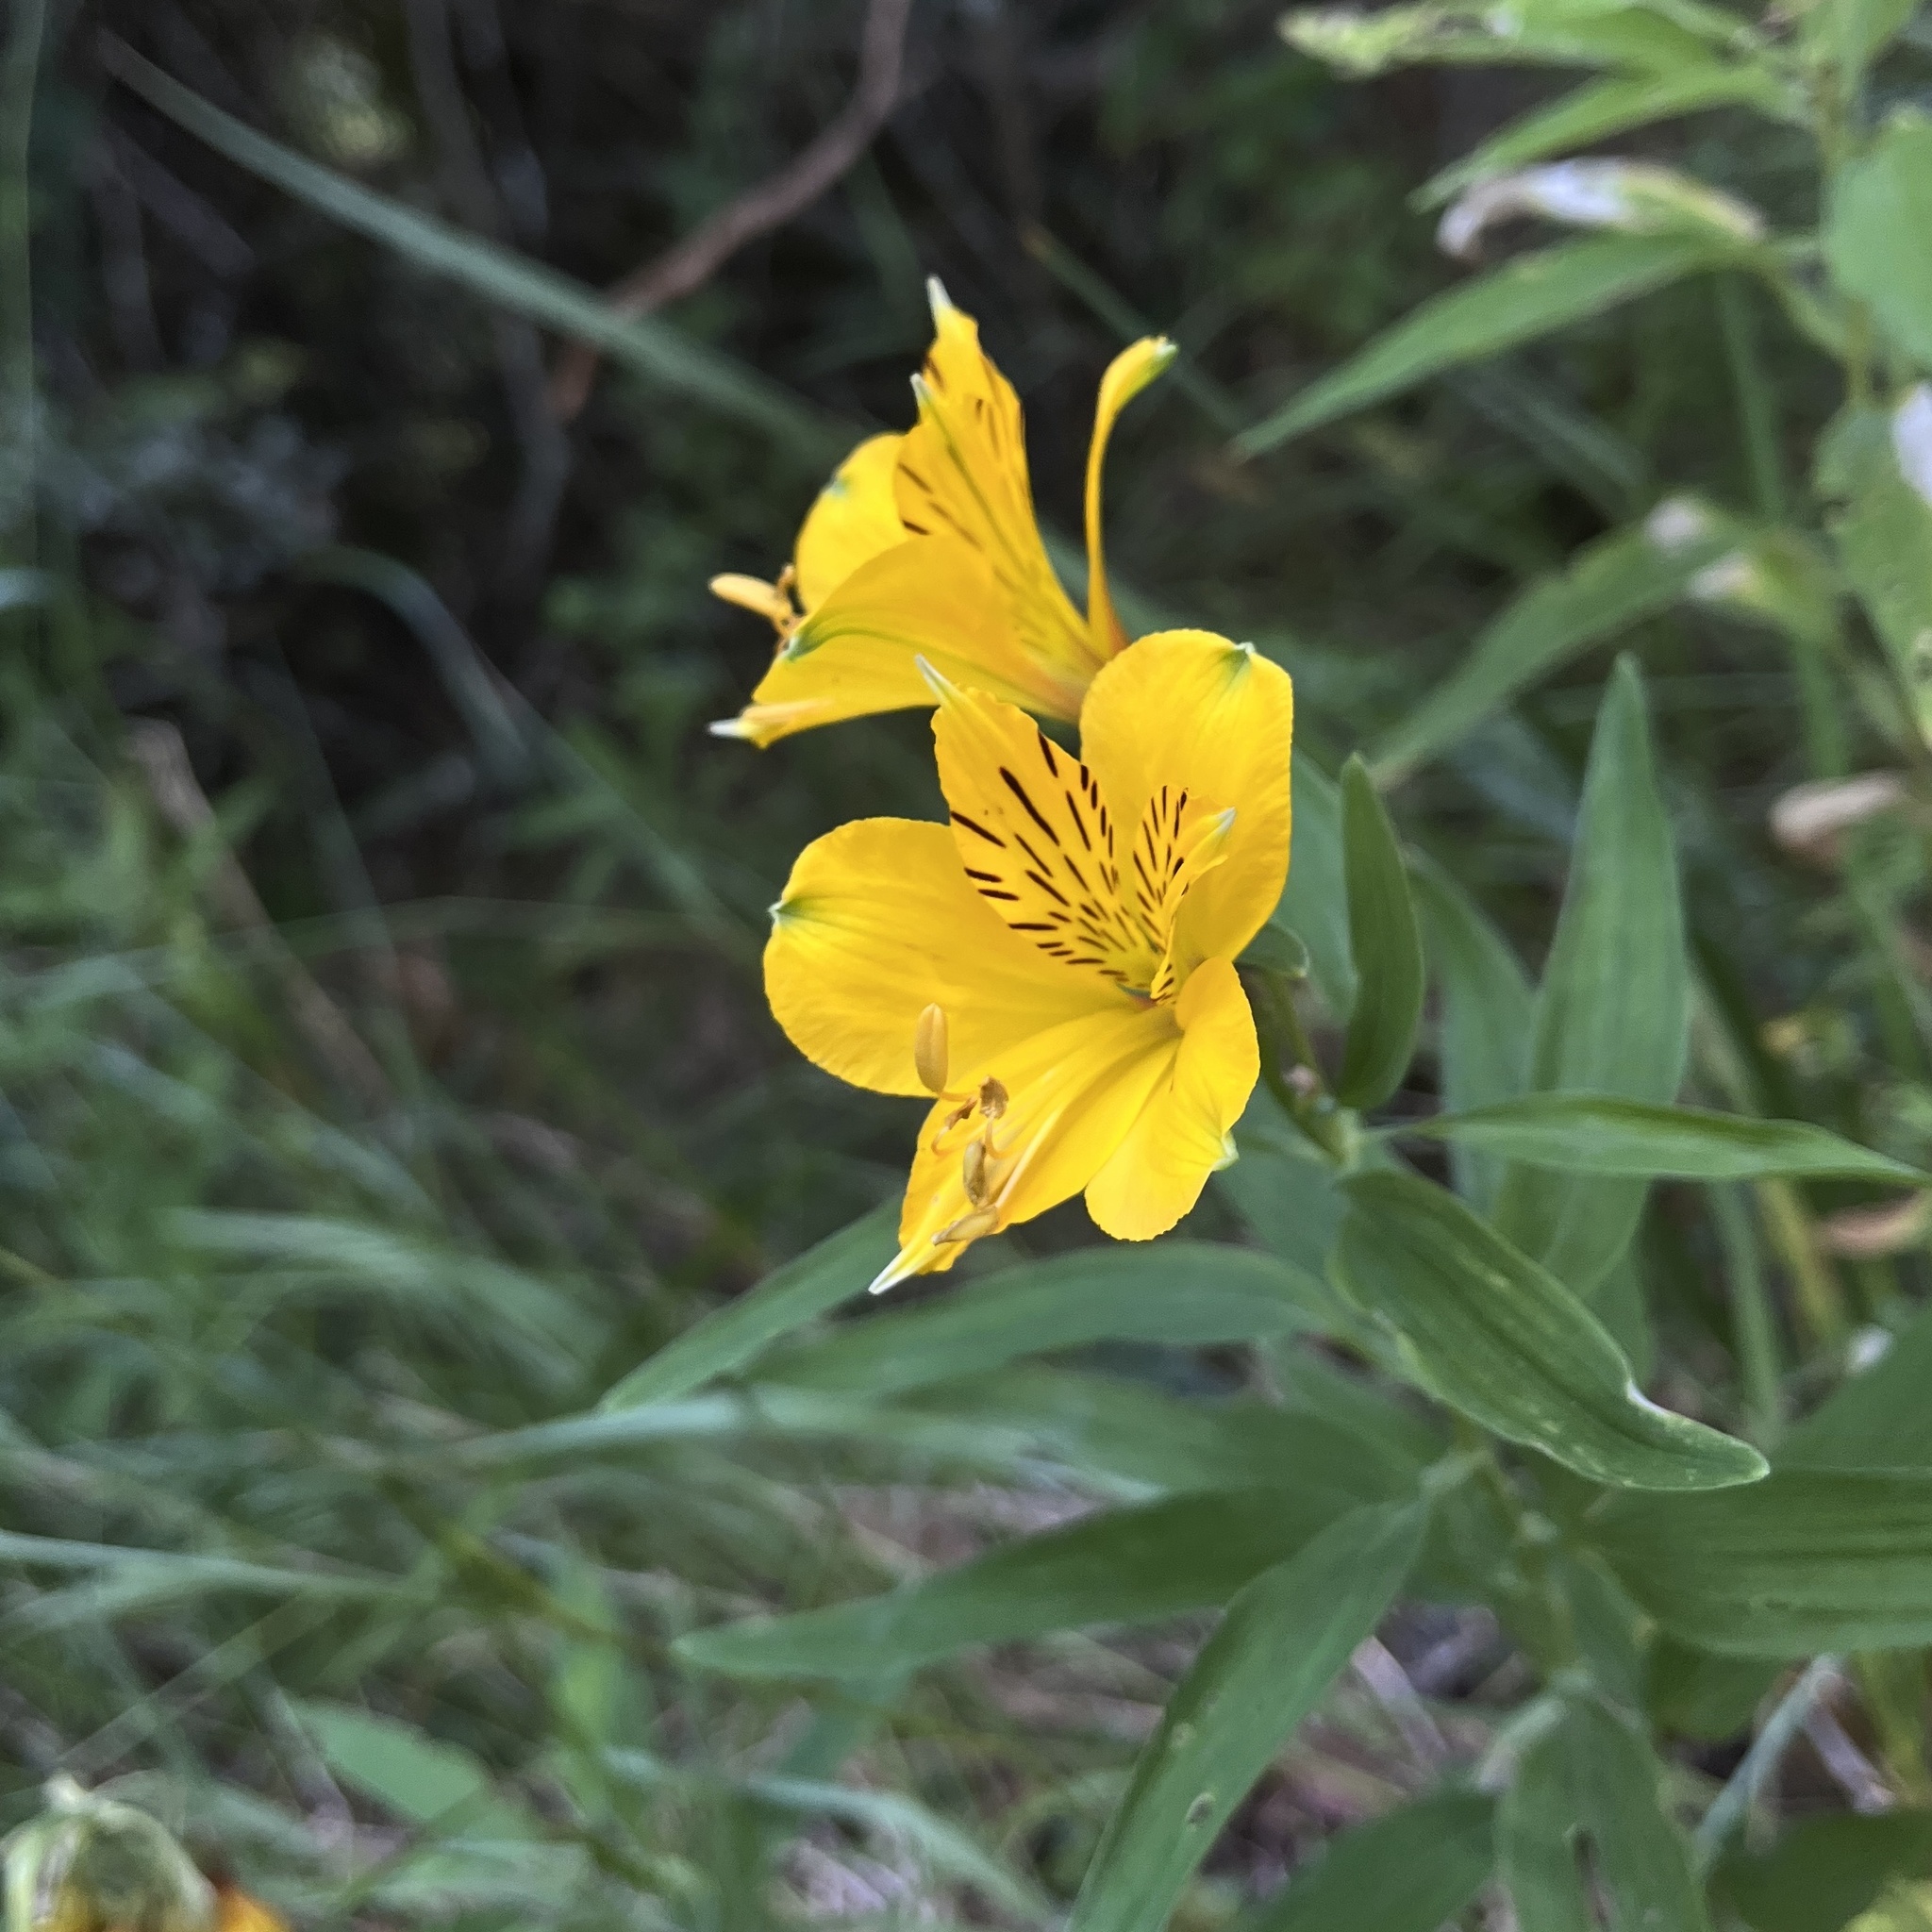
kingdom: Plantae
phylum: Tracheophyta
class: Liliopsida
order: Liliales
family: Alstroemeriaceae
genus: Alstroemeria
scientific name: Alstroemeria aurea
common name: Peruvian lily
